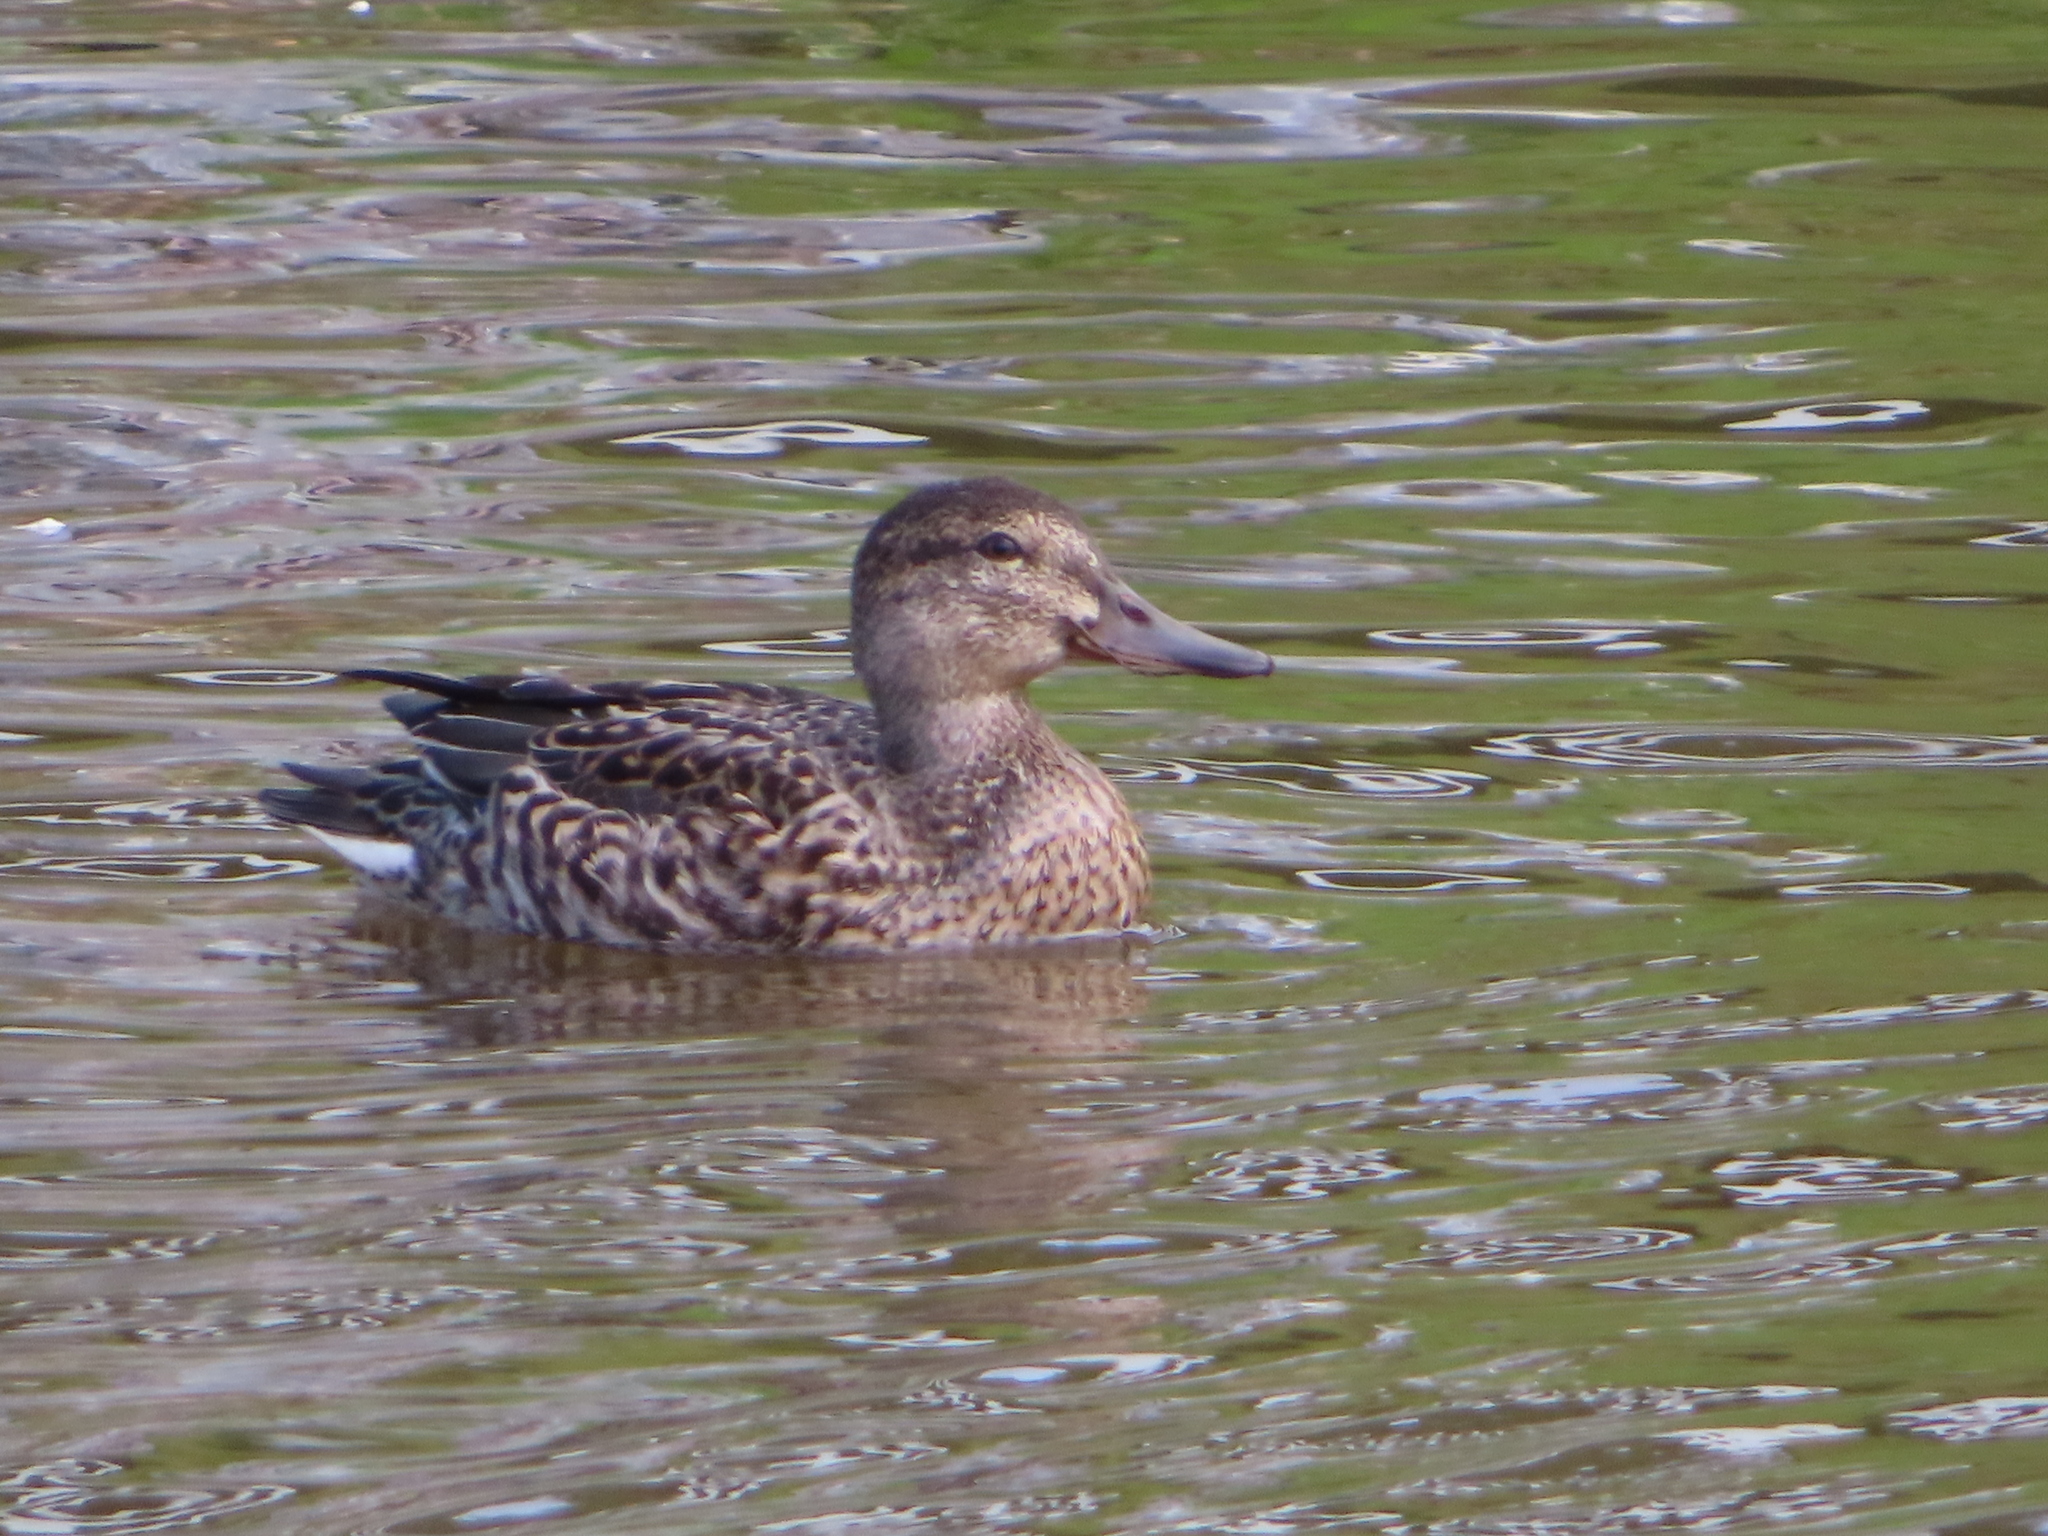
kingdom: Animalia
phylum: Chordata
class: Aves
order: Anseriformes
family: Anatidae
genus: Anas
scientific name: Anas crecca
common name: Eurasian teal
